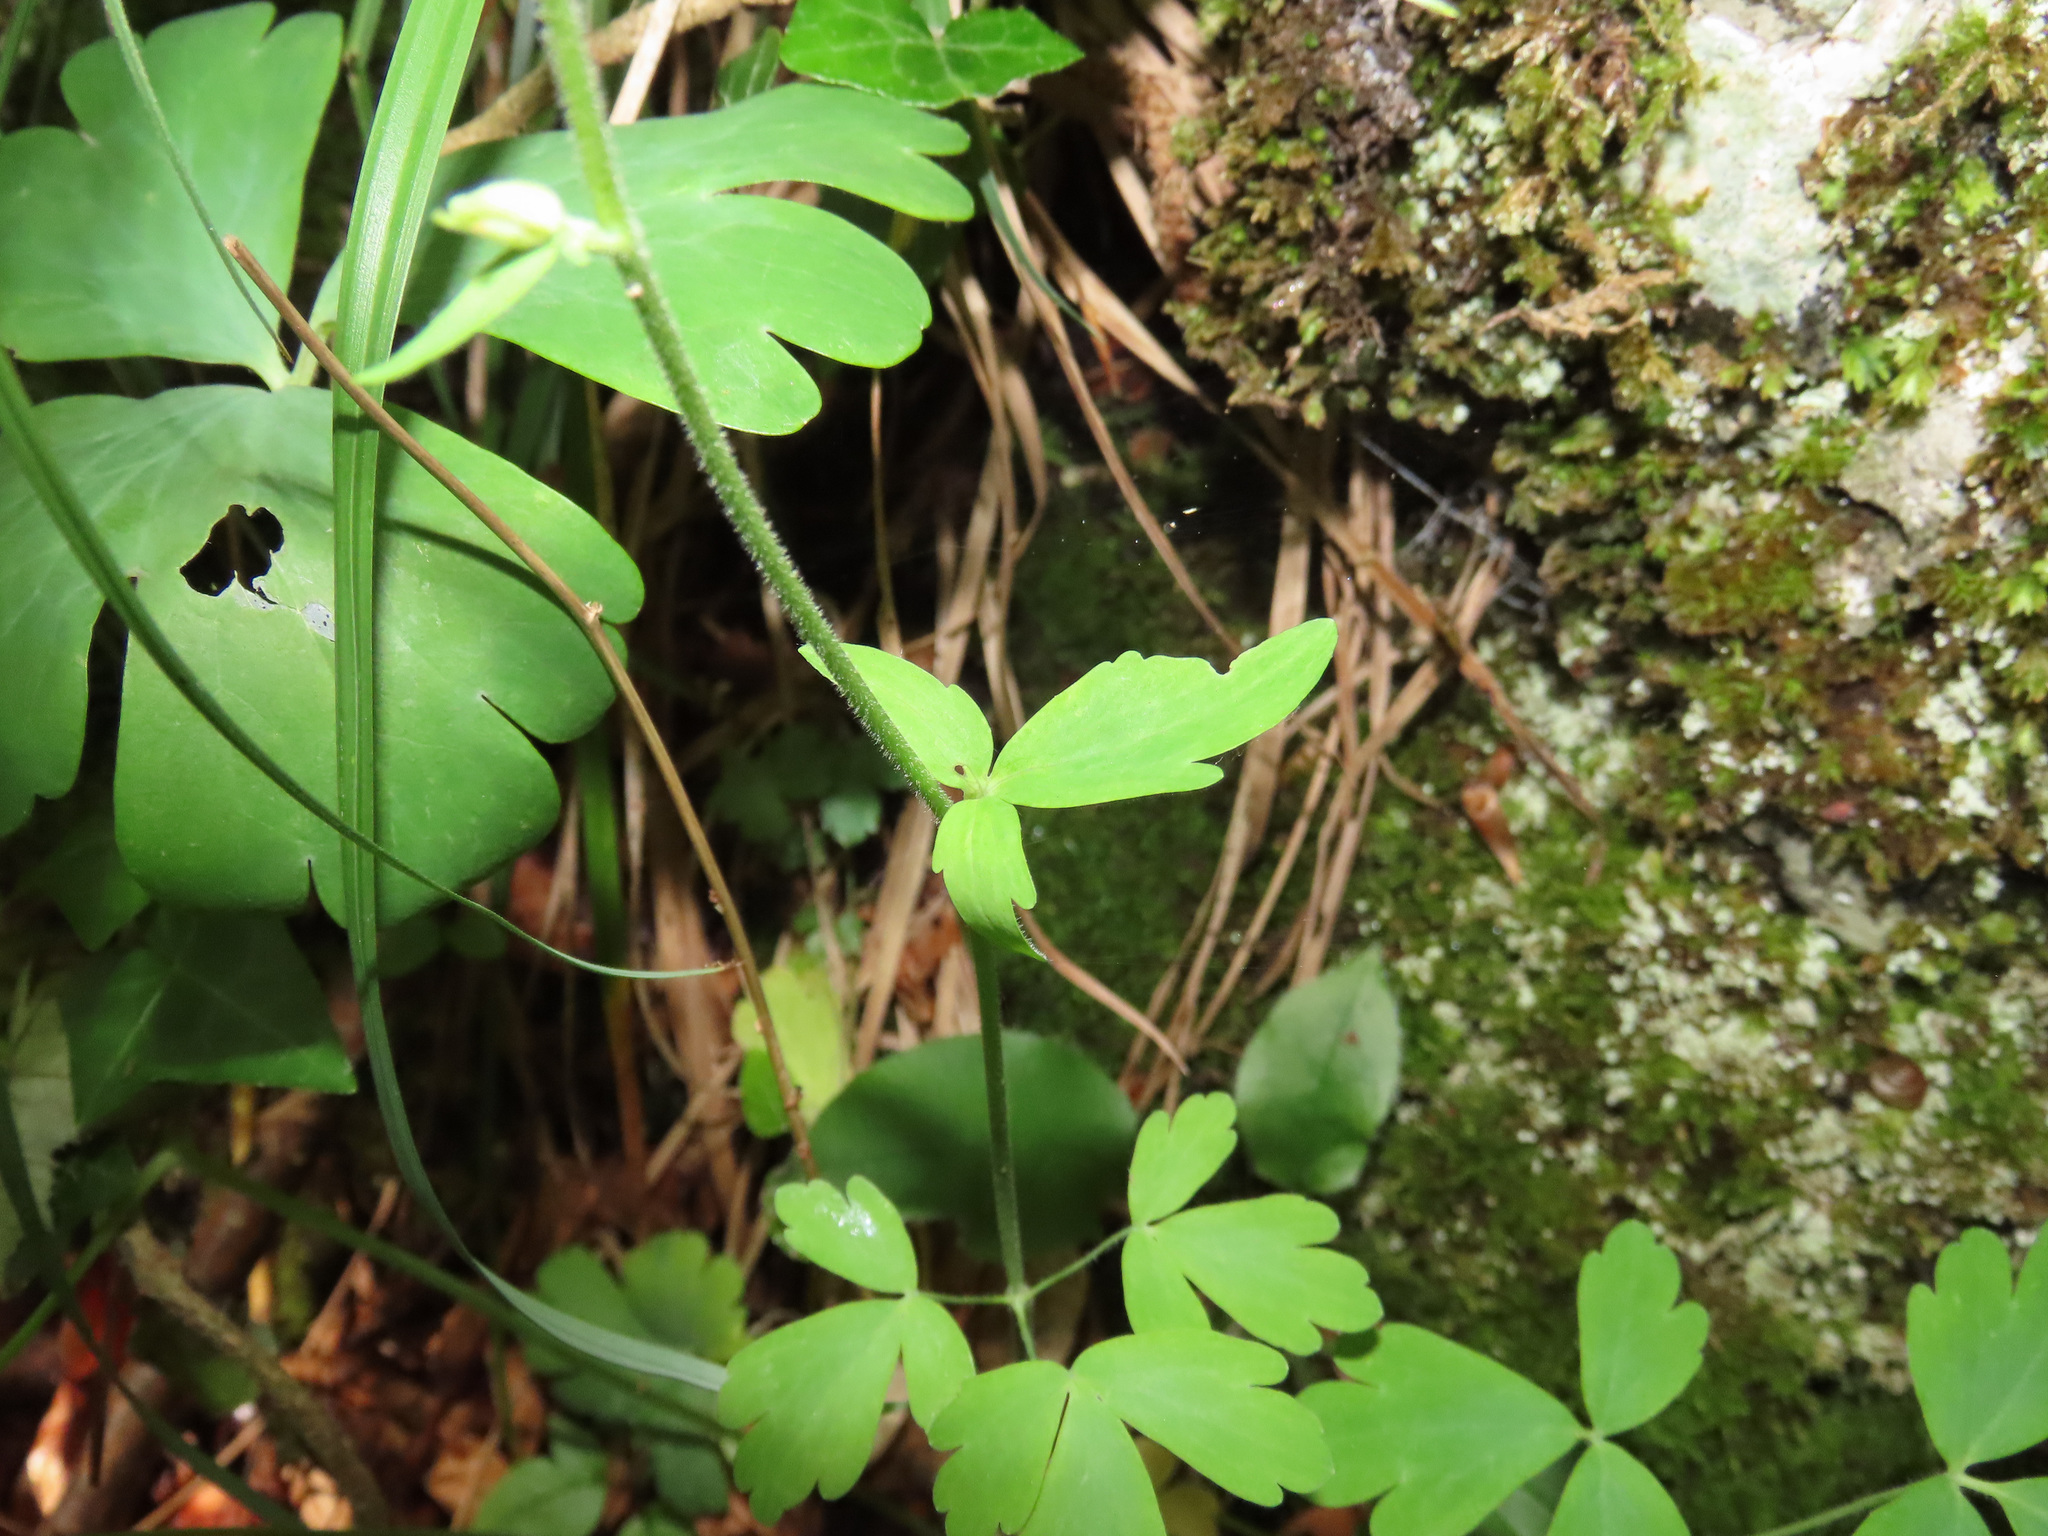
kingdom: Plantae
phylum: Tracheophyta
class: Magnoliopsida
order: Ranunculales
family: Ranunculaceae
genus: Aquilegia
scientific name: Aquilegia dumeticola
